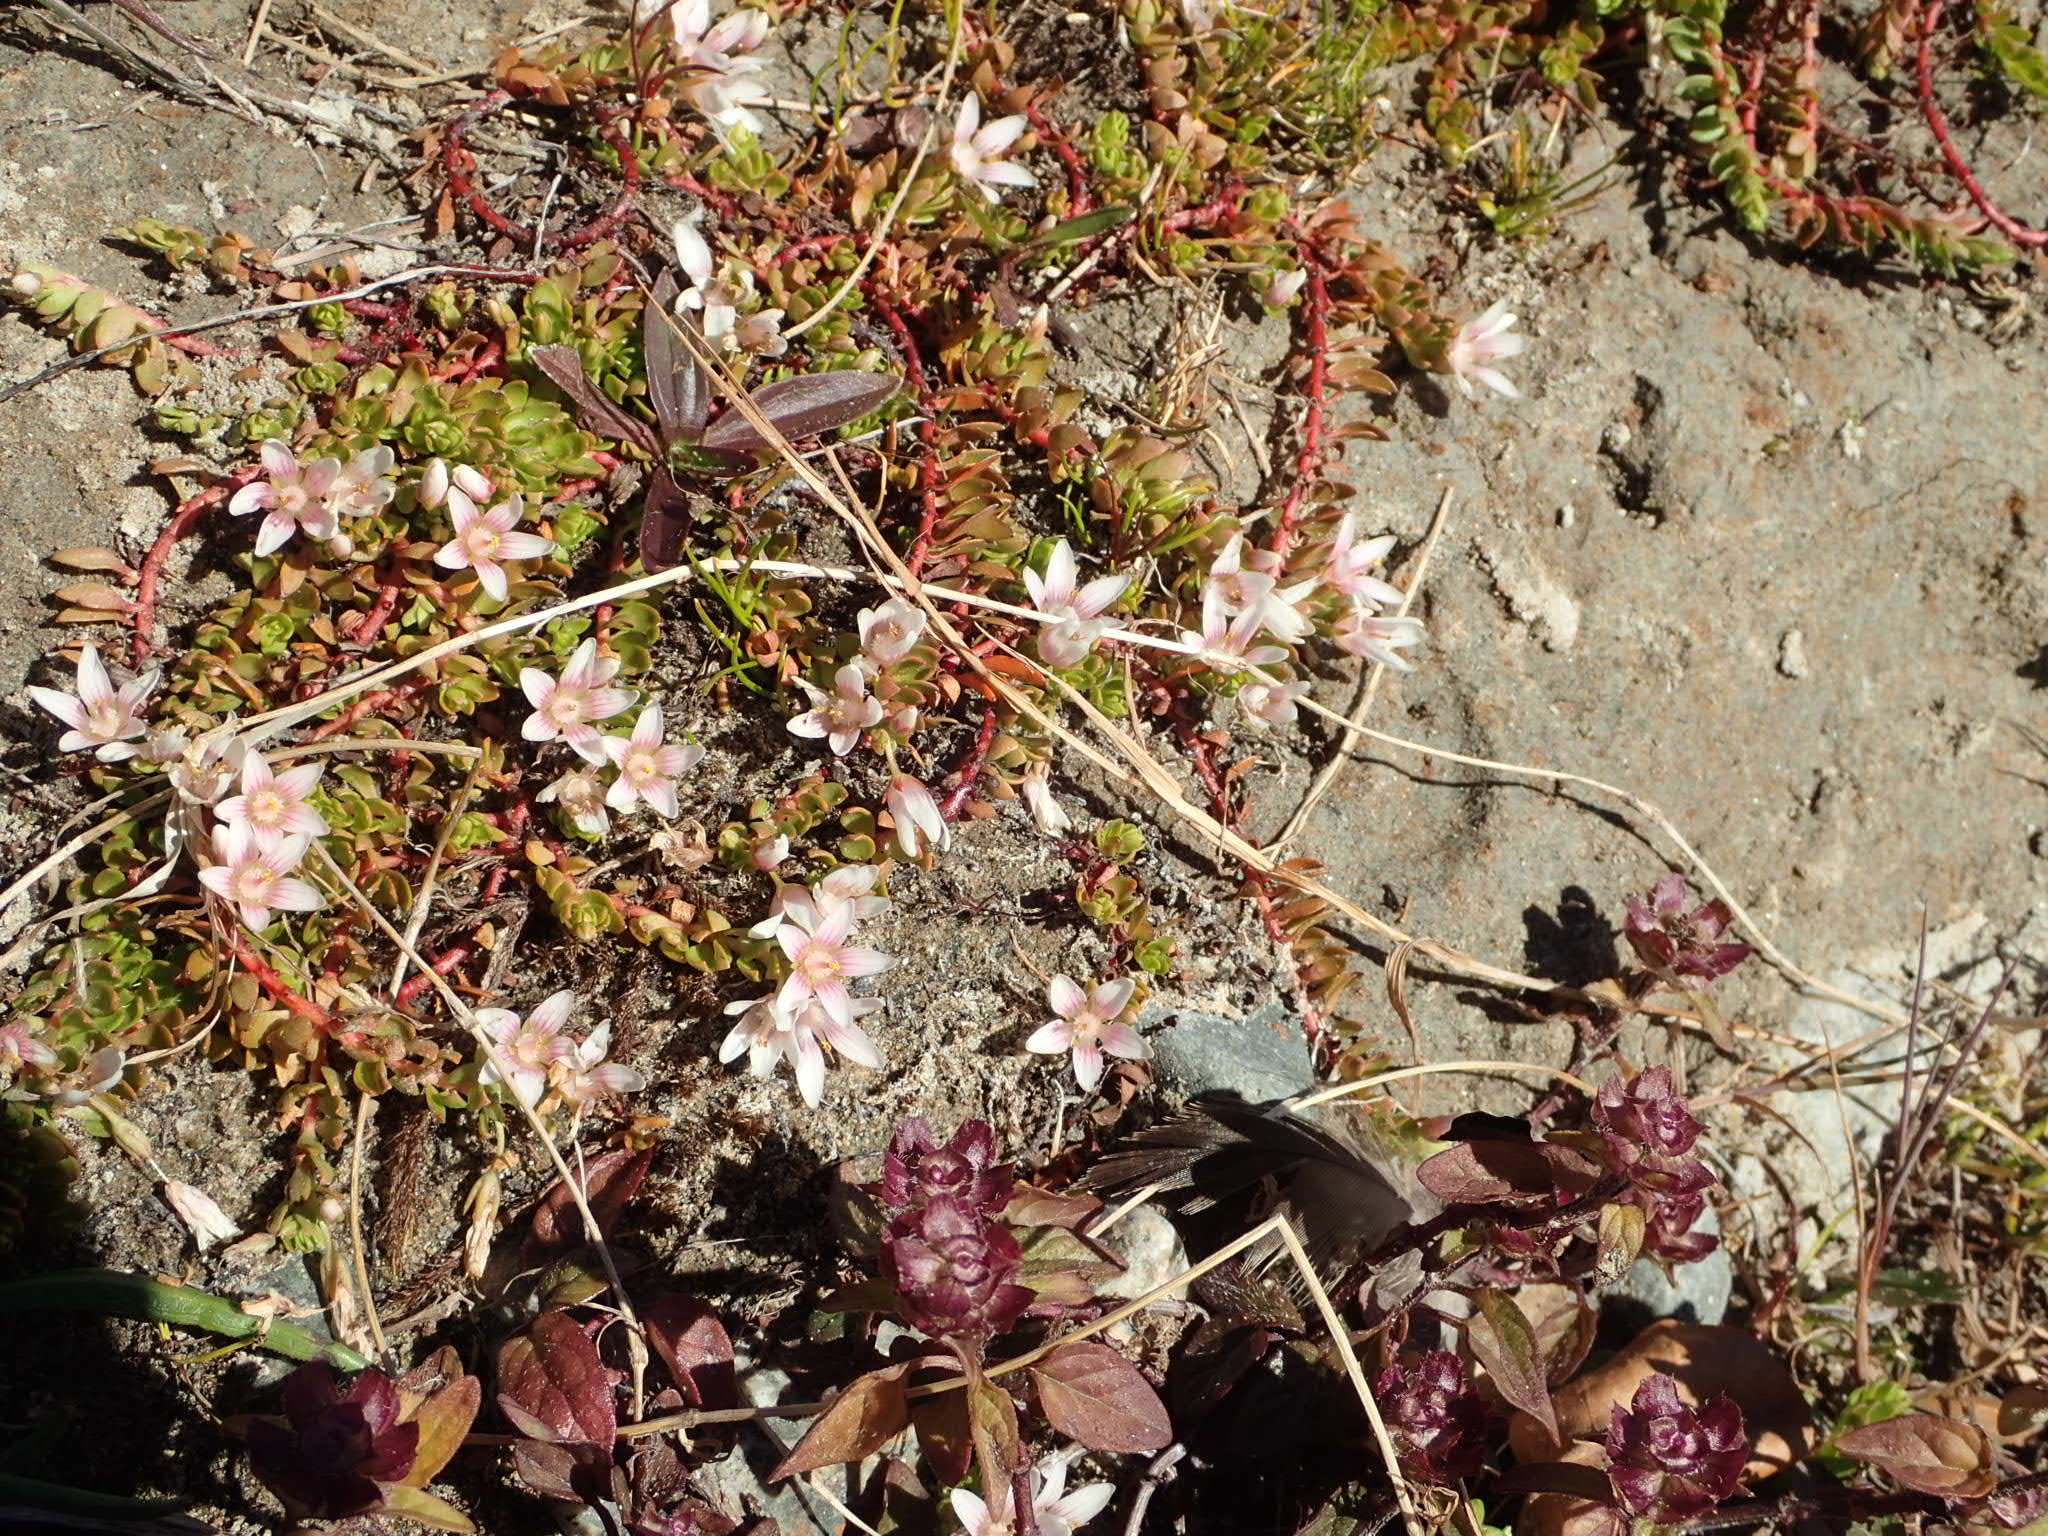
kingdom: Plantae
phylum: Tracheophyta
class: Magnoliopsida
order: Ericales
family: Primulaceae
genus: Lysimachia
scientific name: Lysimachia amoena
